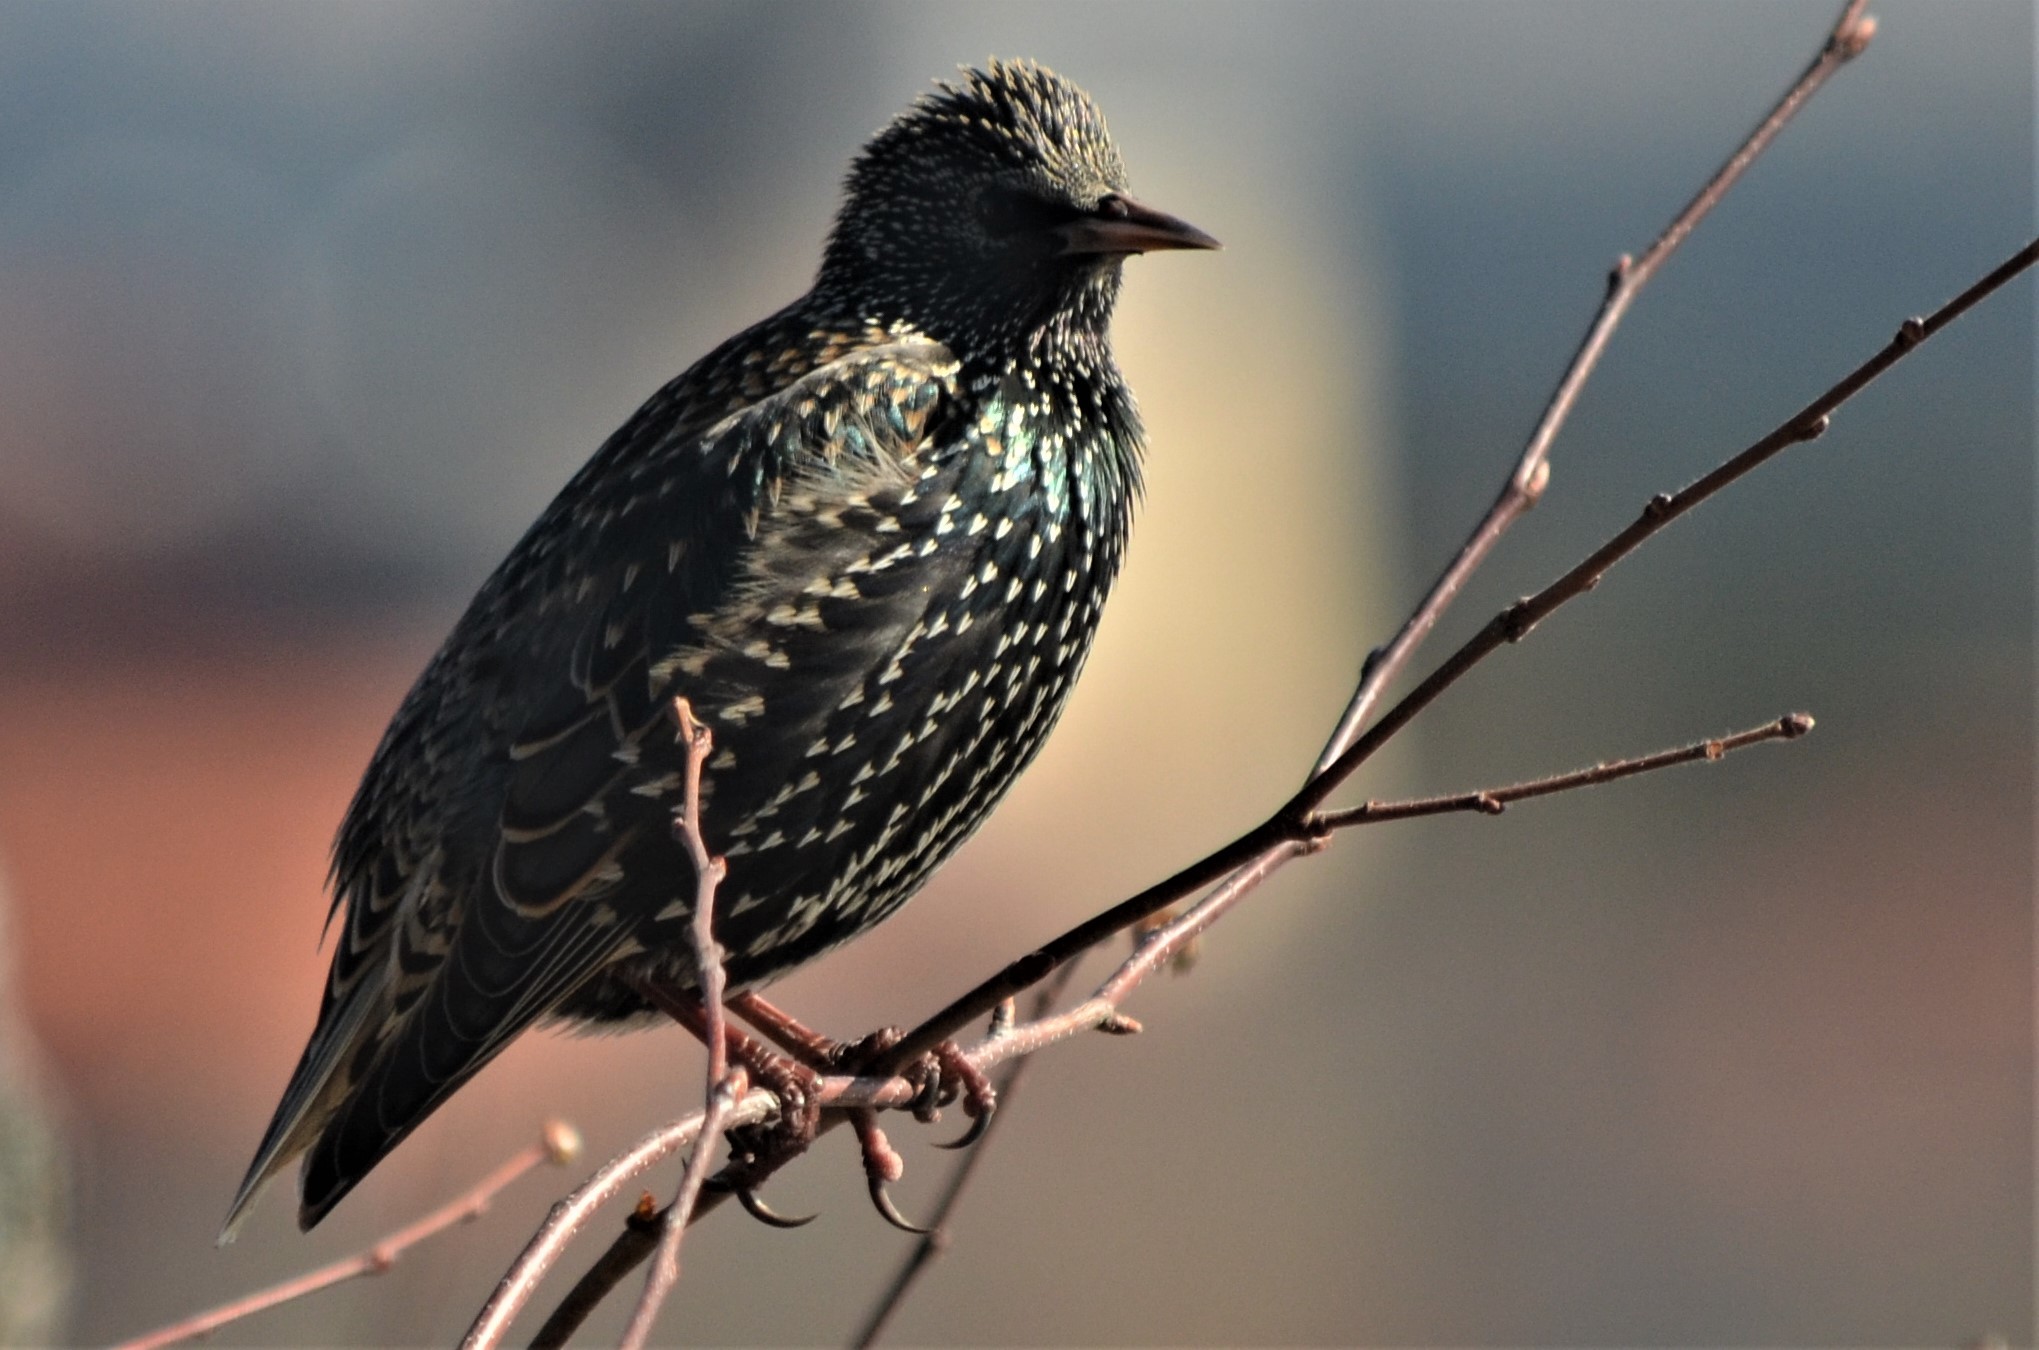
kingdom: Animalia
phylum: Chordata
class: Aves
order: Passeriformes
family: Sturnidae
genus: Sturnus
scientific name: Sturnus vulgaris
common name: Common starling
